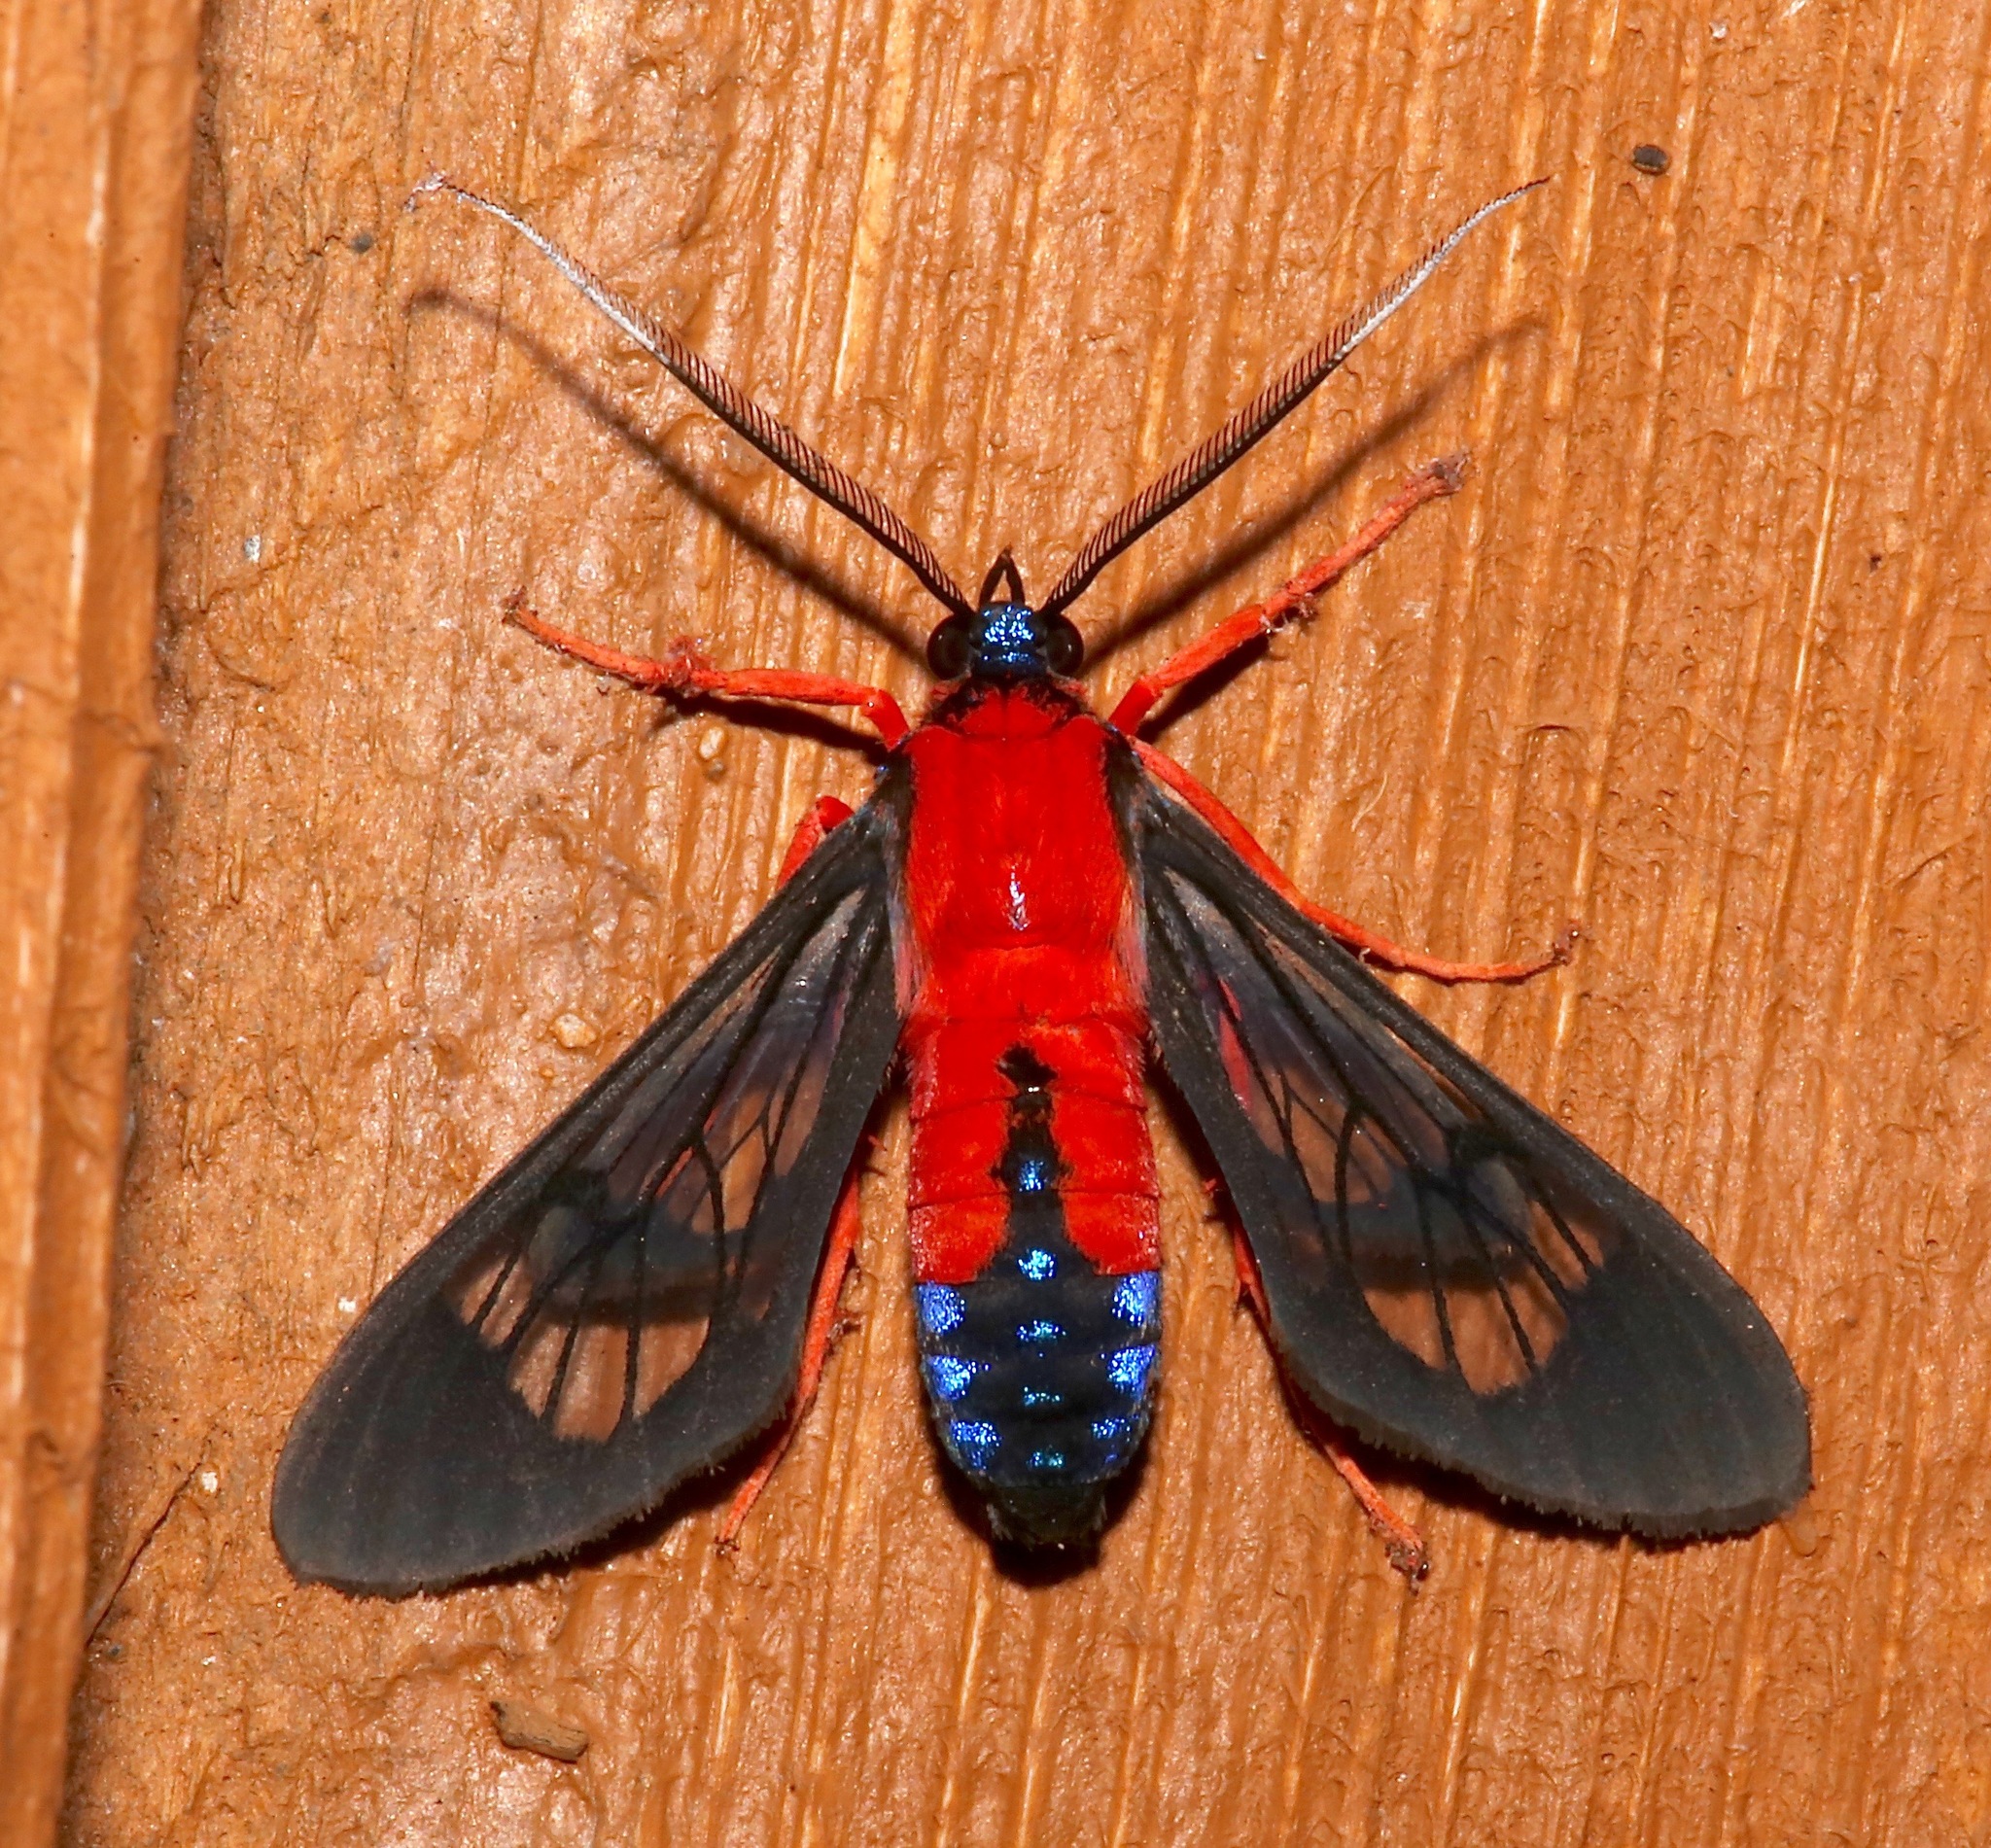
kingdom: Animalia
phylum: Arthropoda
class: Insecta
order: Lepidoptera
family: Erebidae
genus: Cosmosoma
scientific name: Cosmosoma myrodora
